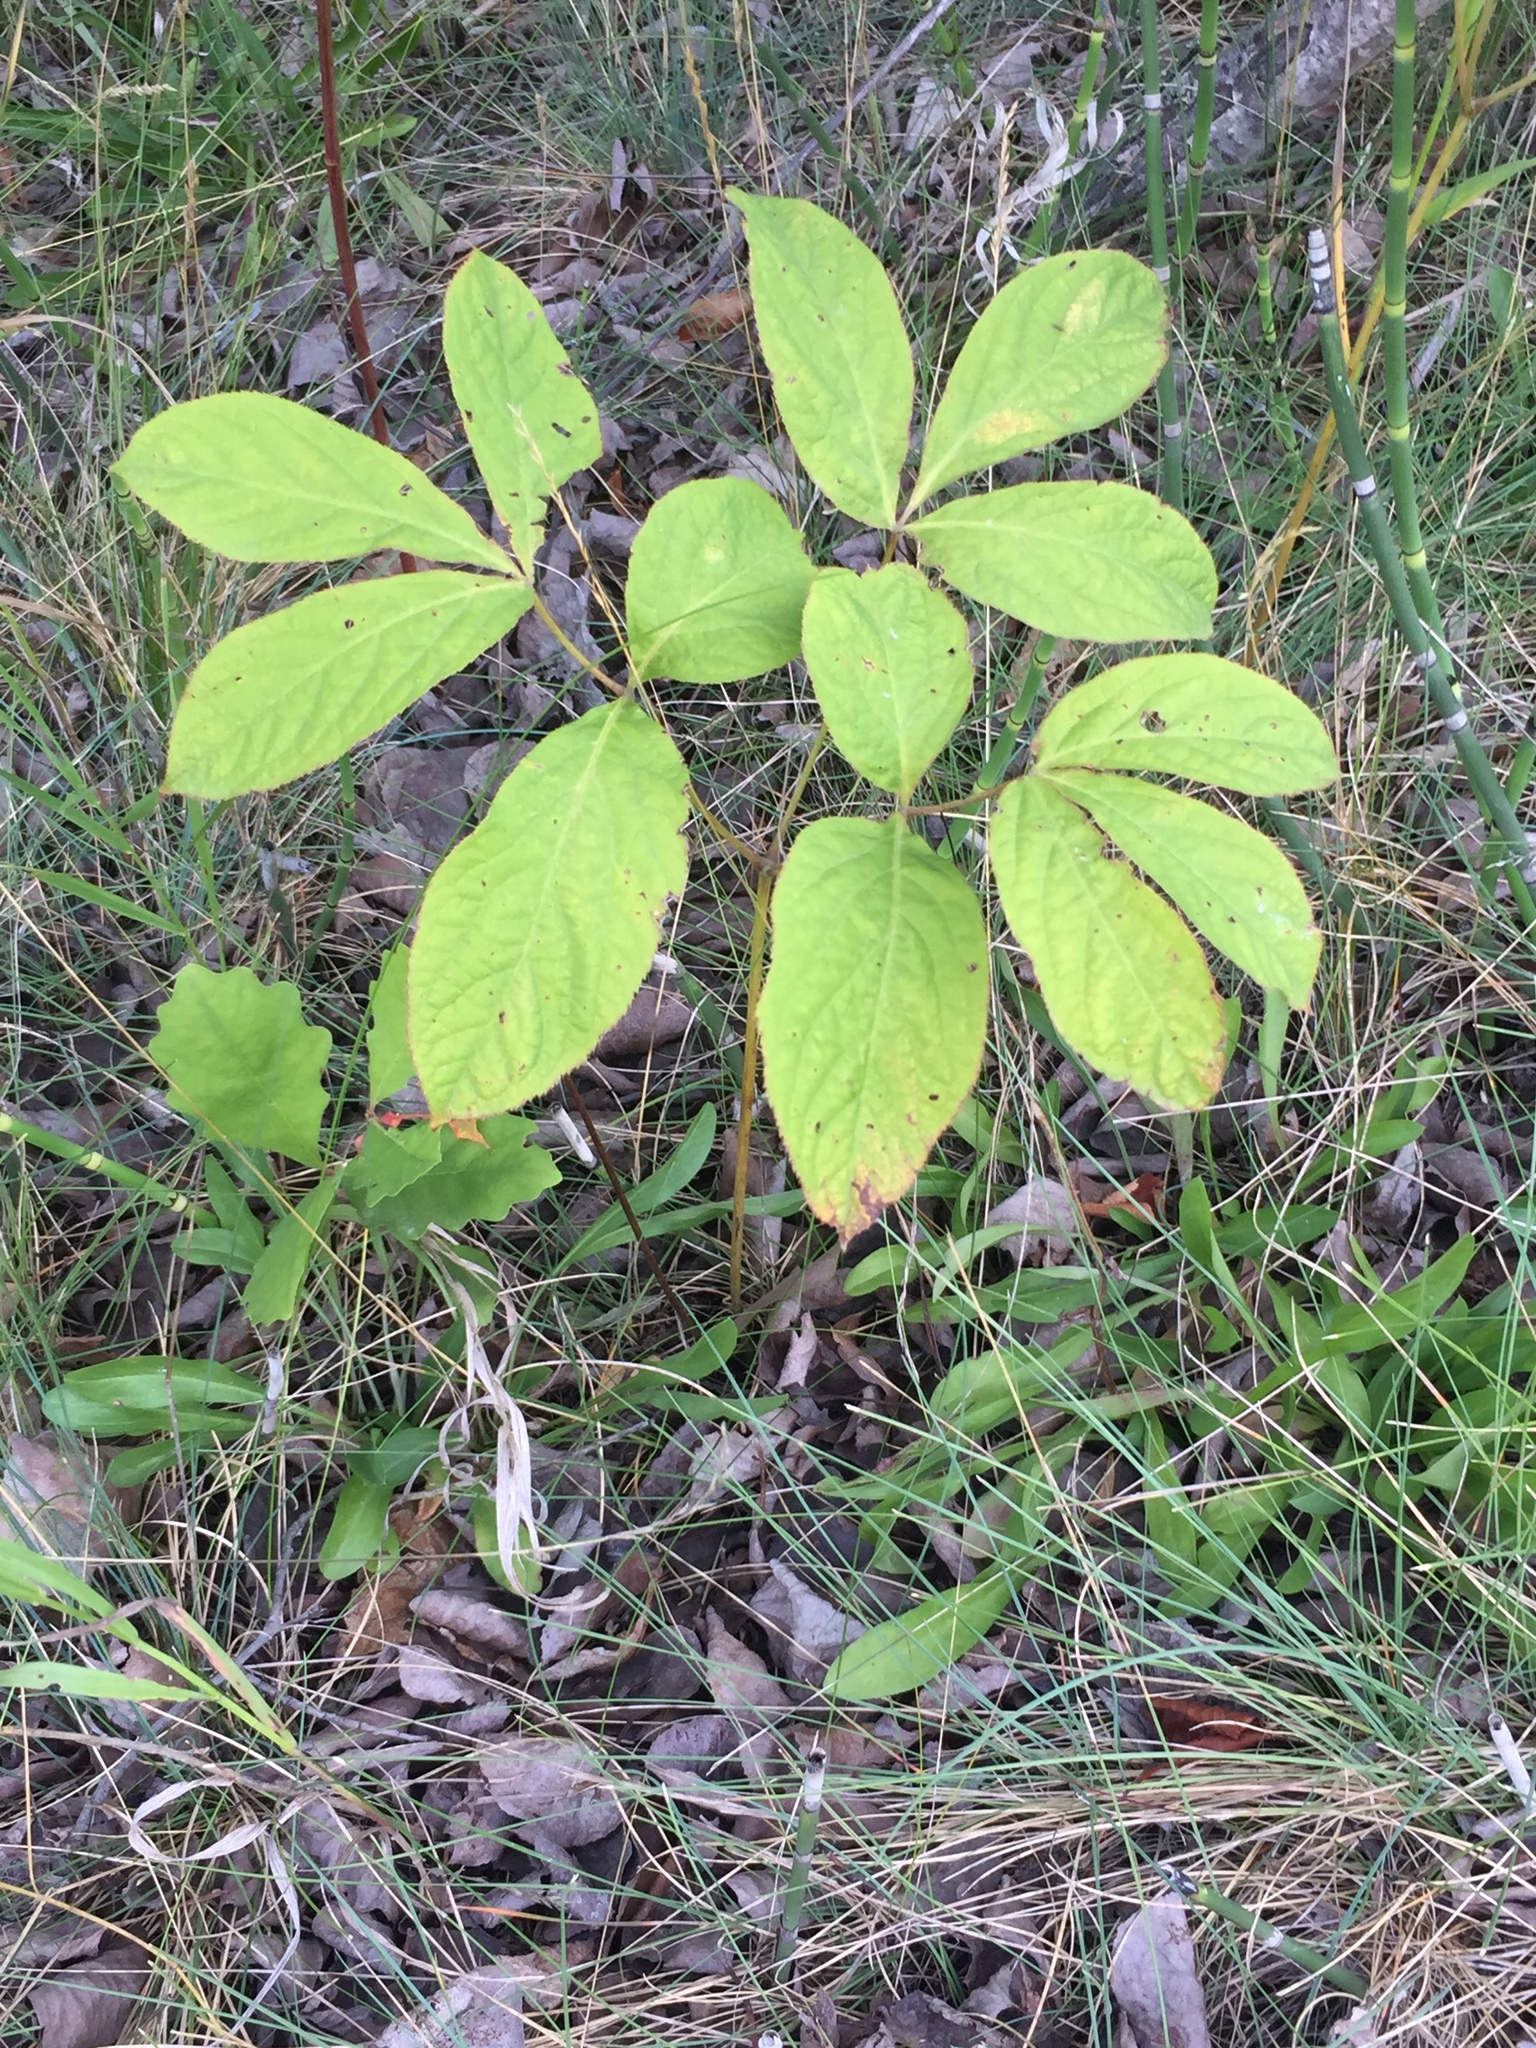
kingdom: Plantae
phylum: Tracheophyta
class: Magnoliopsida
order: Apiales
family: Araliaceae
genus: Aralia
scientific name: Aralia nudicaulis
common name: Wild sarsaparilla
